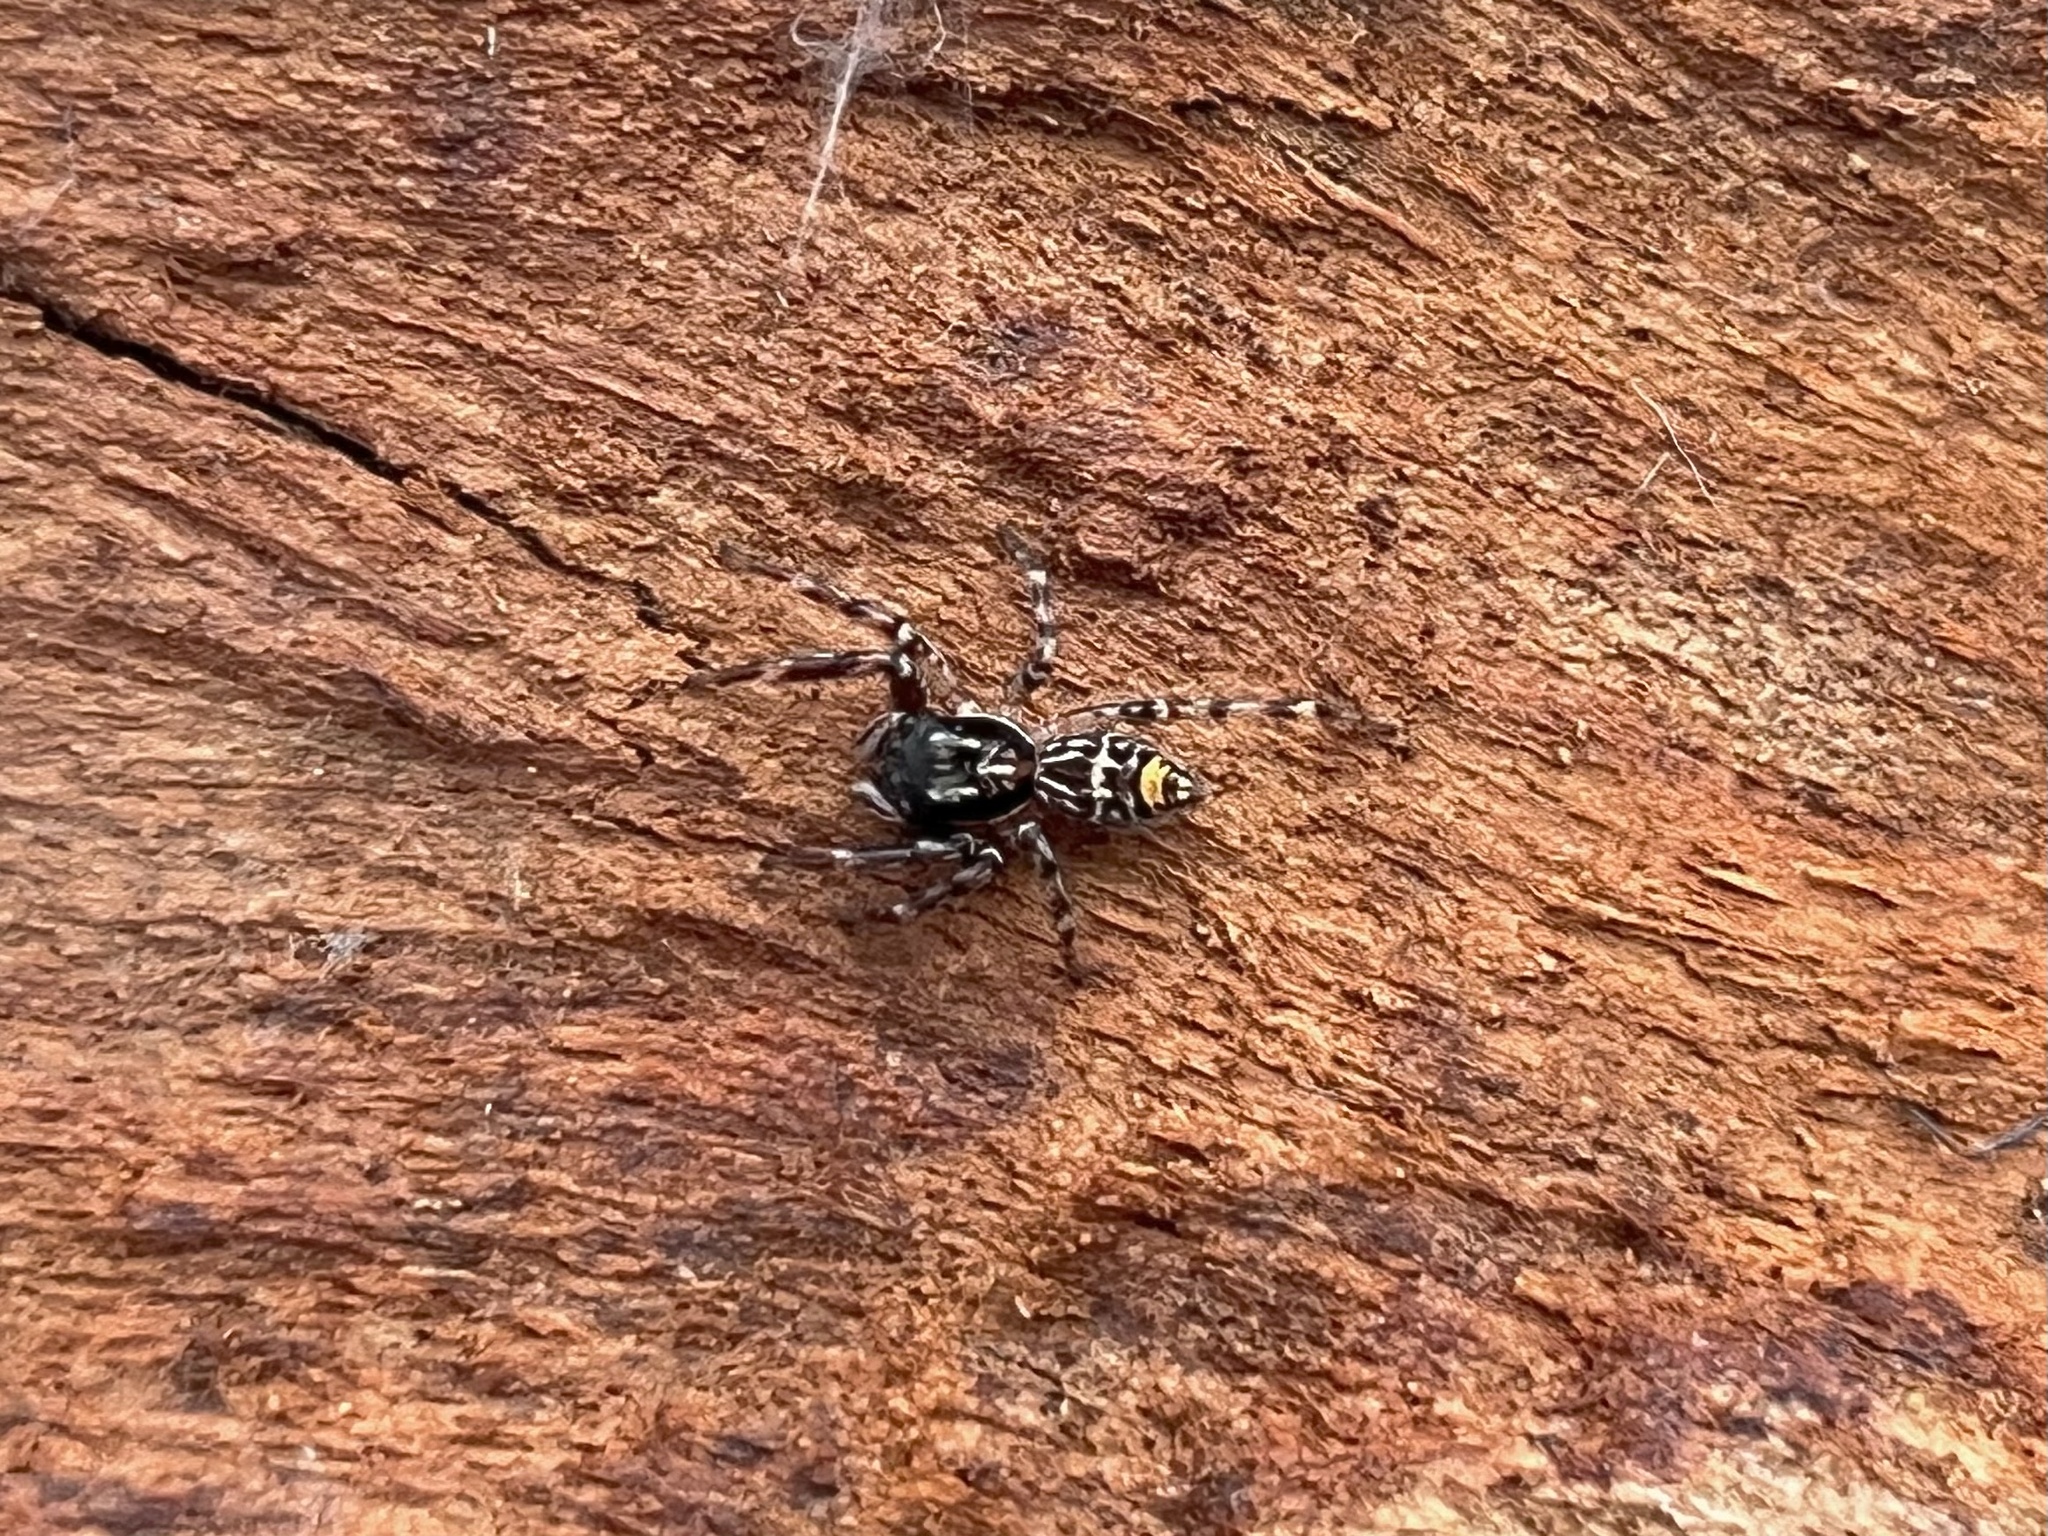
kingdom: Animalia
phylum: Arthropoda
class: Arachnida
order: Araneae
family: Salticidae
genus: Astia
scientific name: Astia
